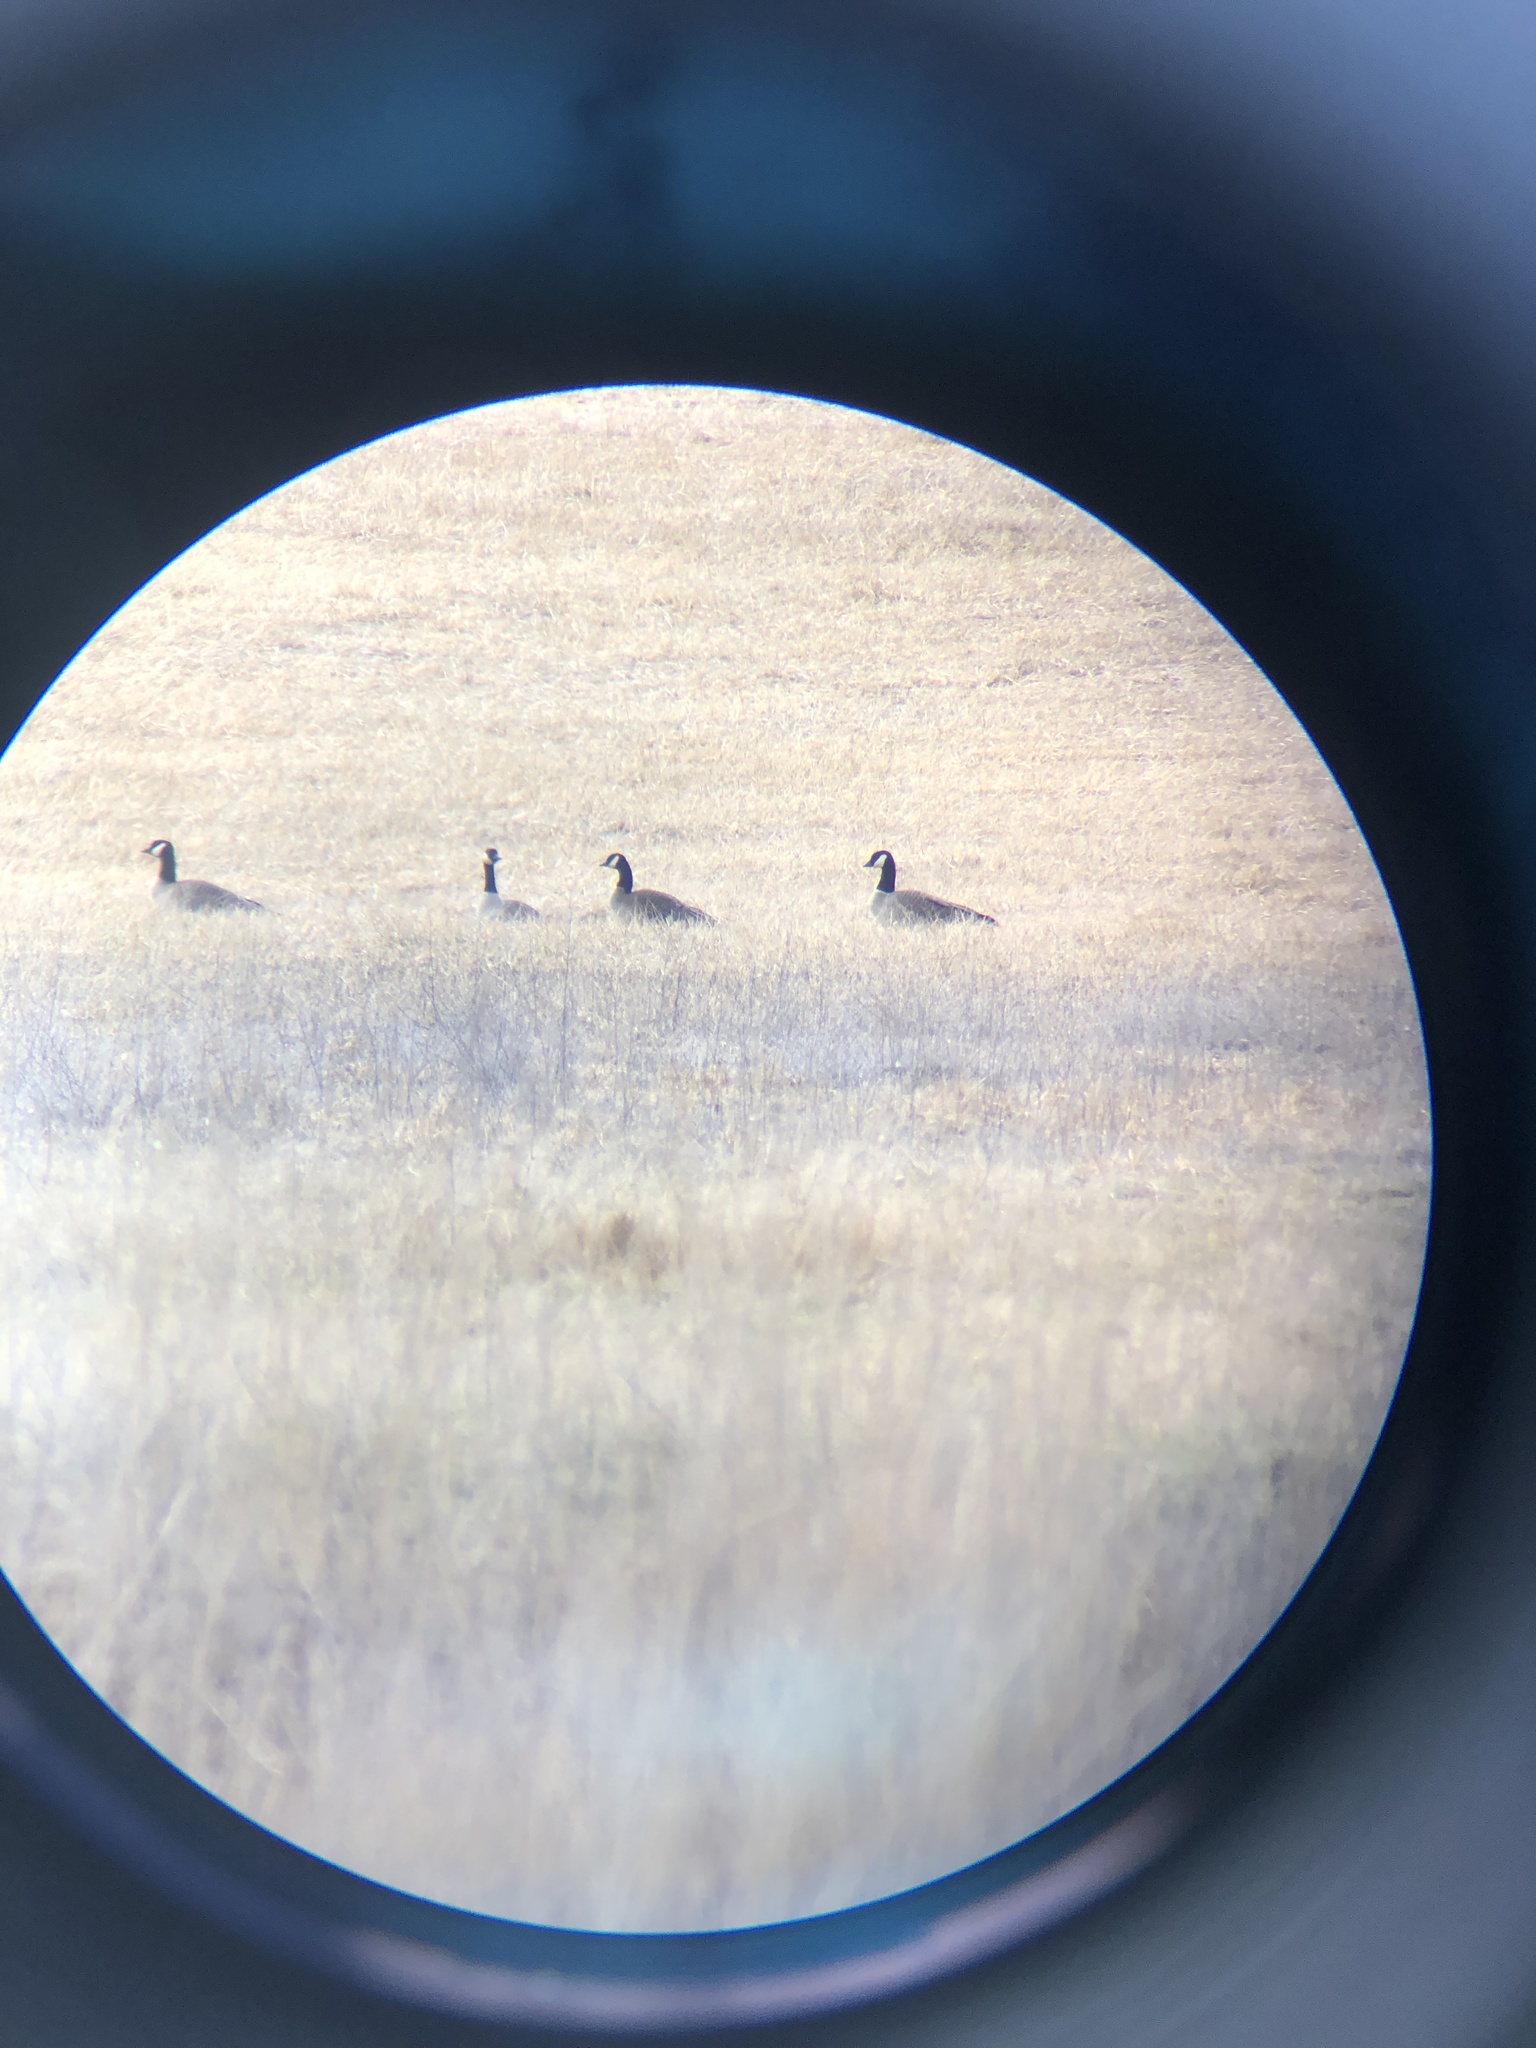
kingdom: Animalia
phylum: Chordata
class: Aves
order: Anseriformes
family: Anatidae
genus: Branta
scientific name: Branta hutchinsii
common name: Cackling goose
